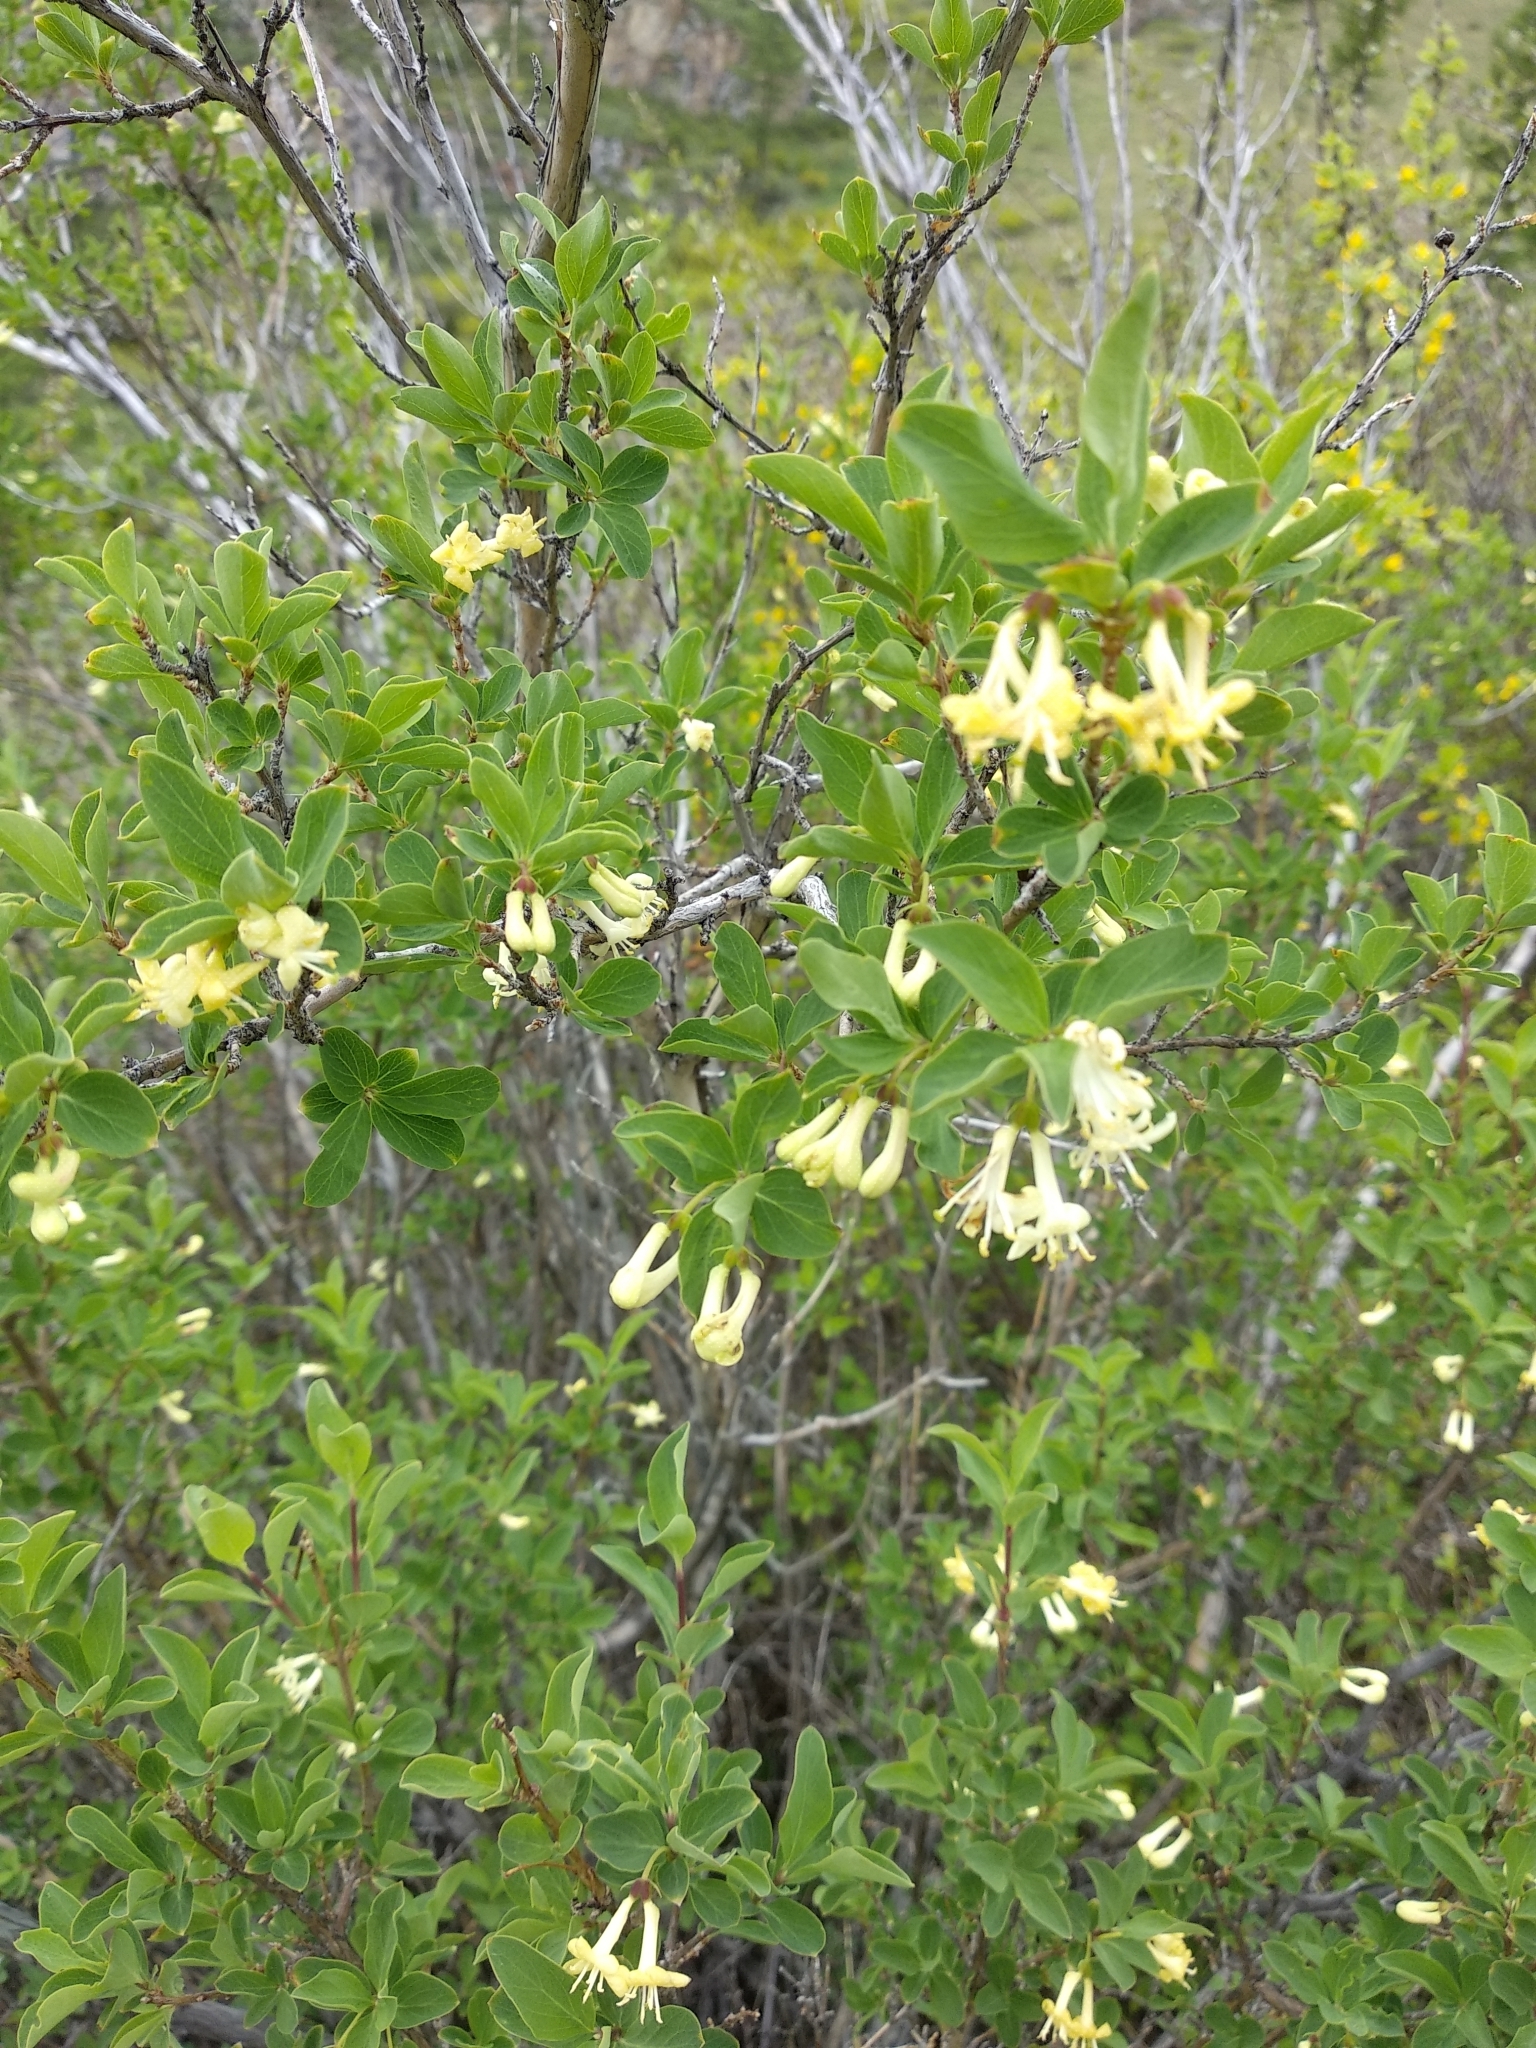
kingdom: Plantae
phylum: Tracheophyta
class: Magnoliopsida
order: Dipsacales
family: Caprifoliaceae
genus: Lonicera
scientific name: Lonicera microphylla
